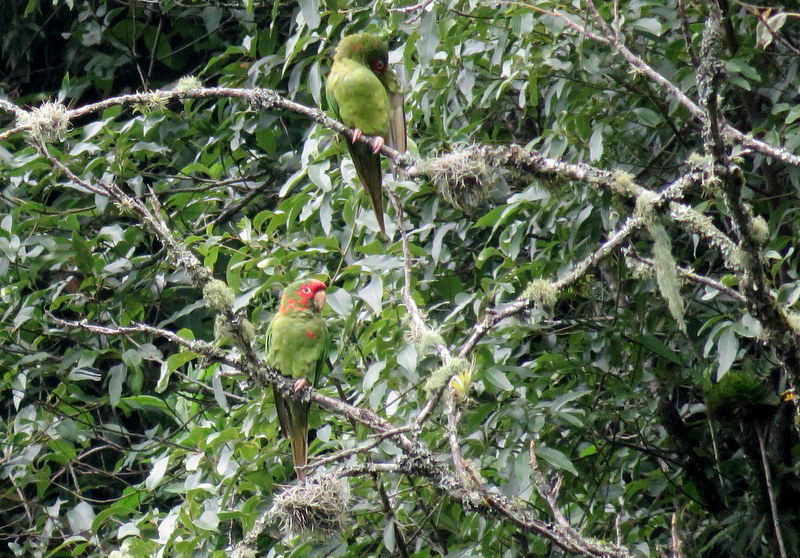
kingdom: Animalia
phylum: Chordata
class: Aves
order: Psittaciformes
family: Psittacidae
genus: Aratinga
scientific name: Aratinga mitrata
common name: Mitred parakeet
